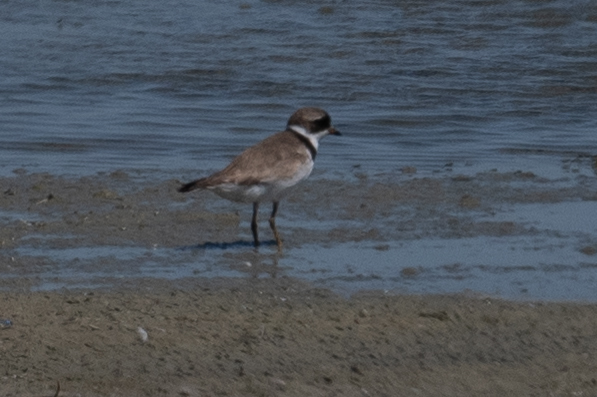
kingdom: Animalia
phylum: Chordata
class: Aves
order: Charadriiformes
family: Charadriidae
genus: Charadrius
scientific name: Charadrius semipalmatus
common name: Semipalmated plover
